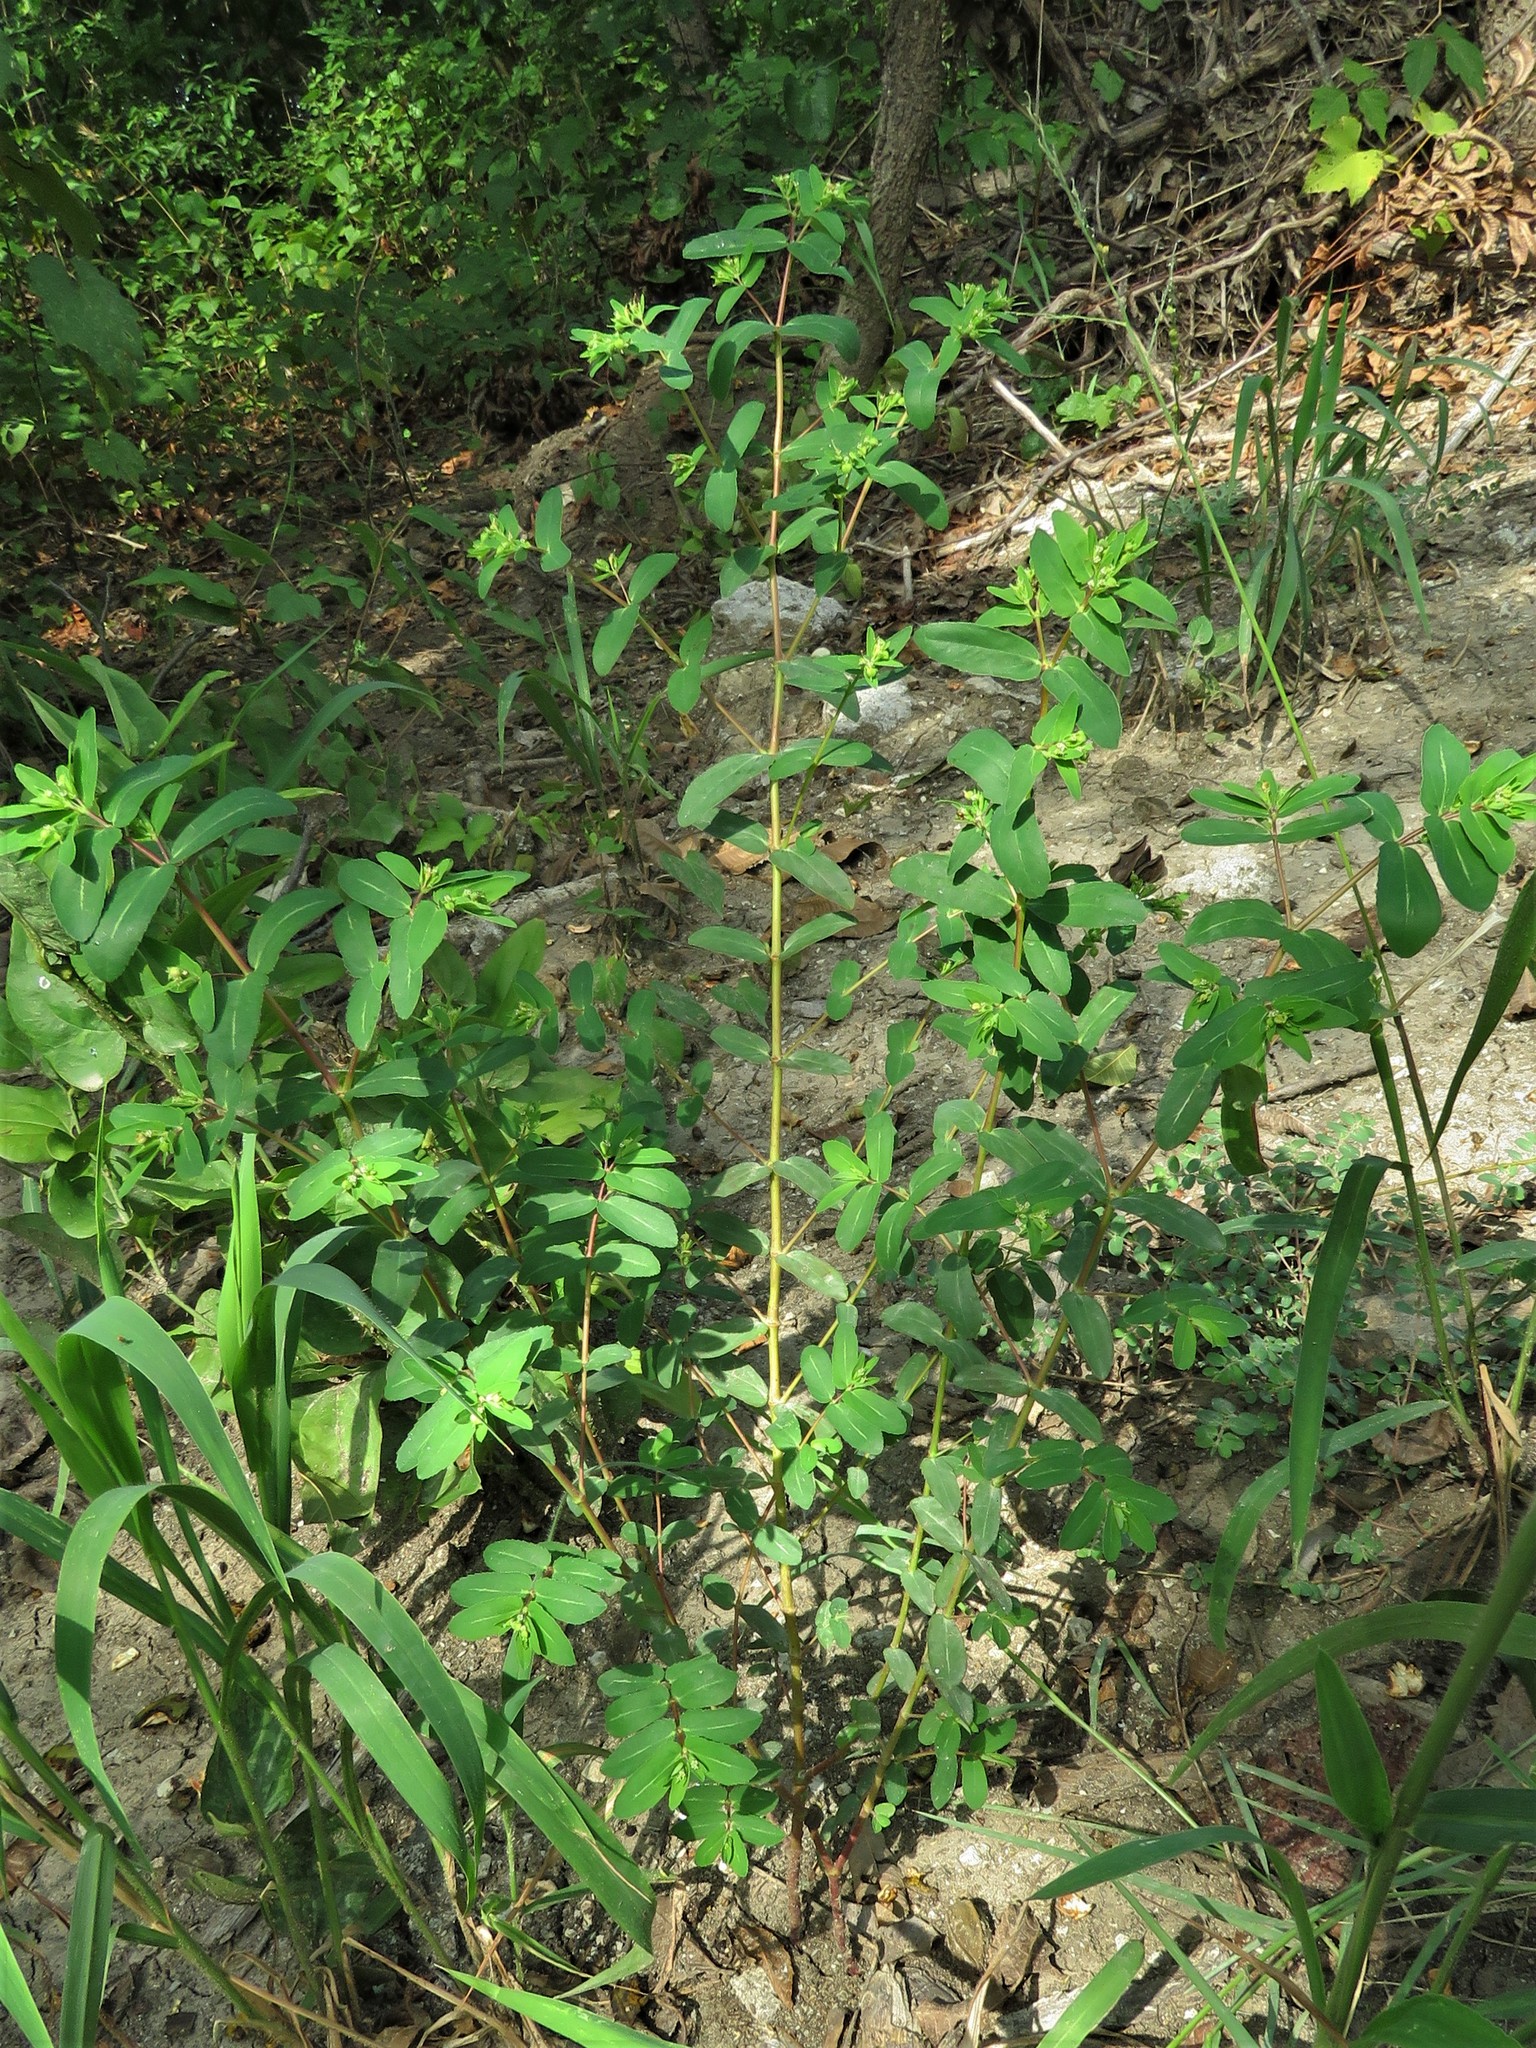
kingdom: Plantae
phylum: Tracheophyta
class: Magnoliopsida
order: Malpighiales
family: Euphorbiaceae
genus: Euphorbia
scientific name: Euphorbia nutans
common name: Eyebane
